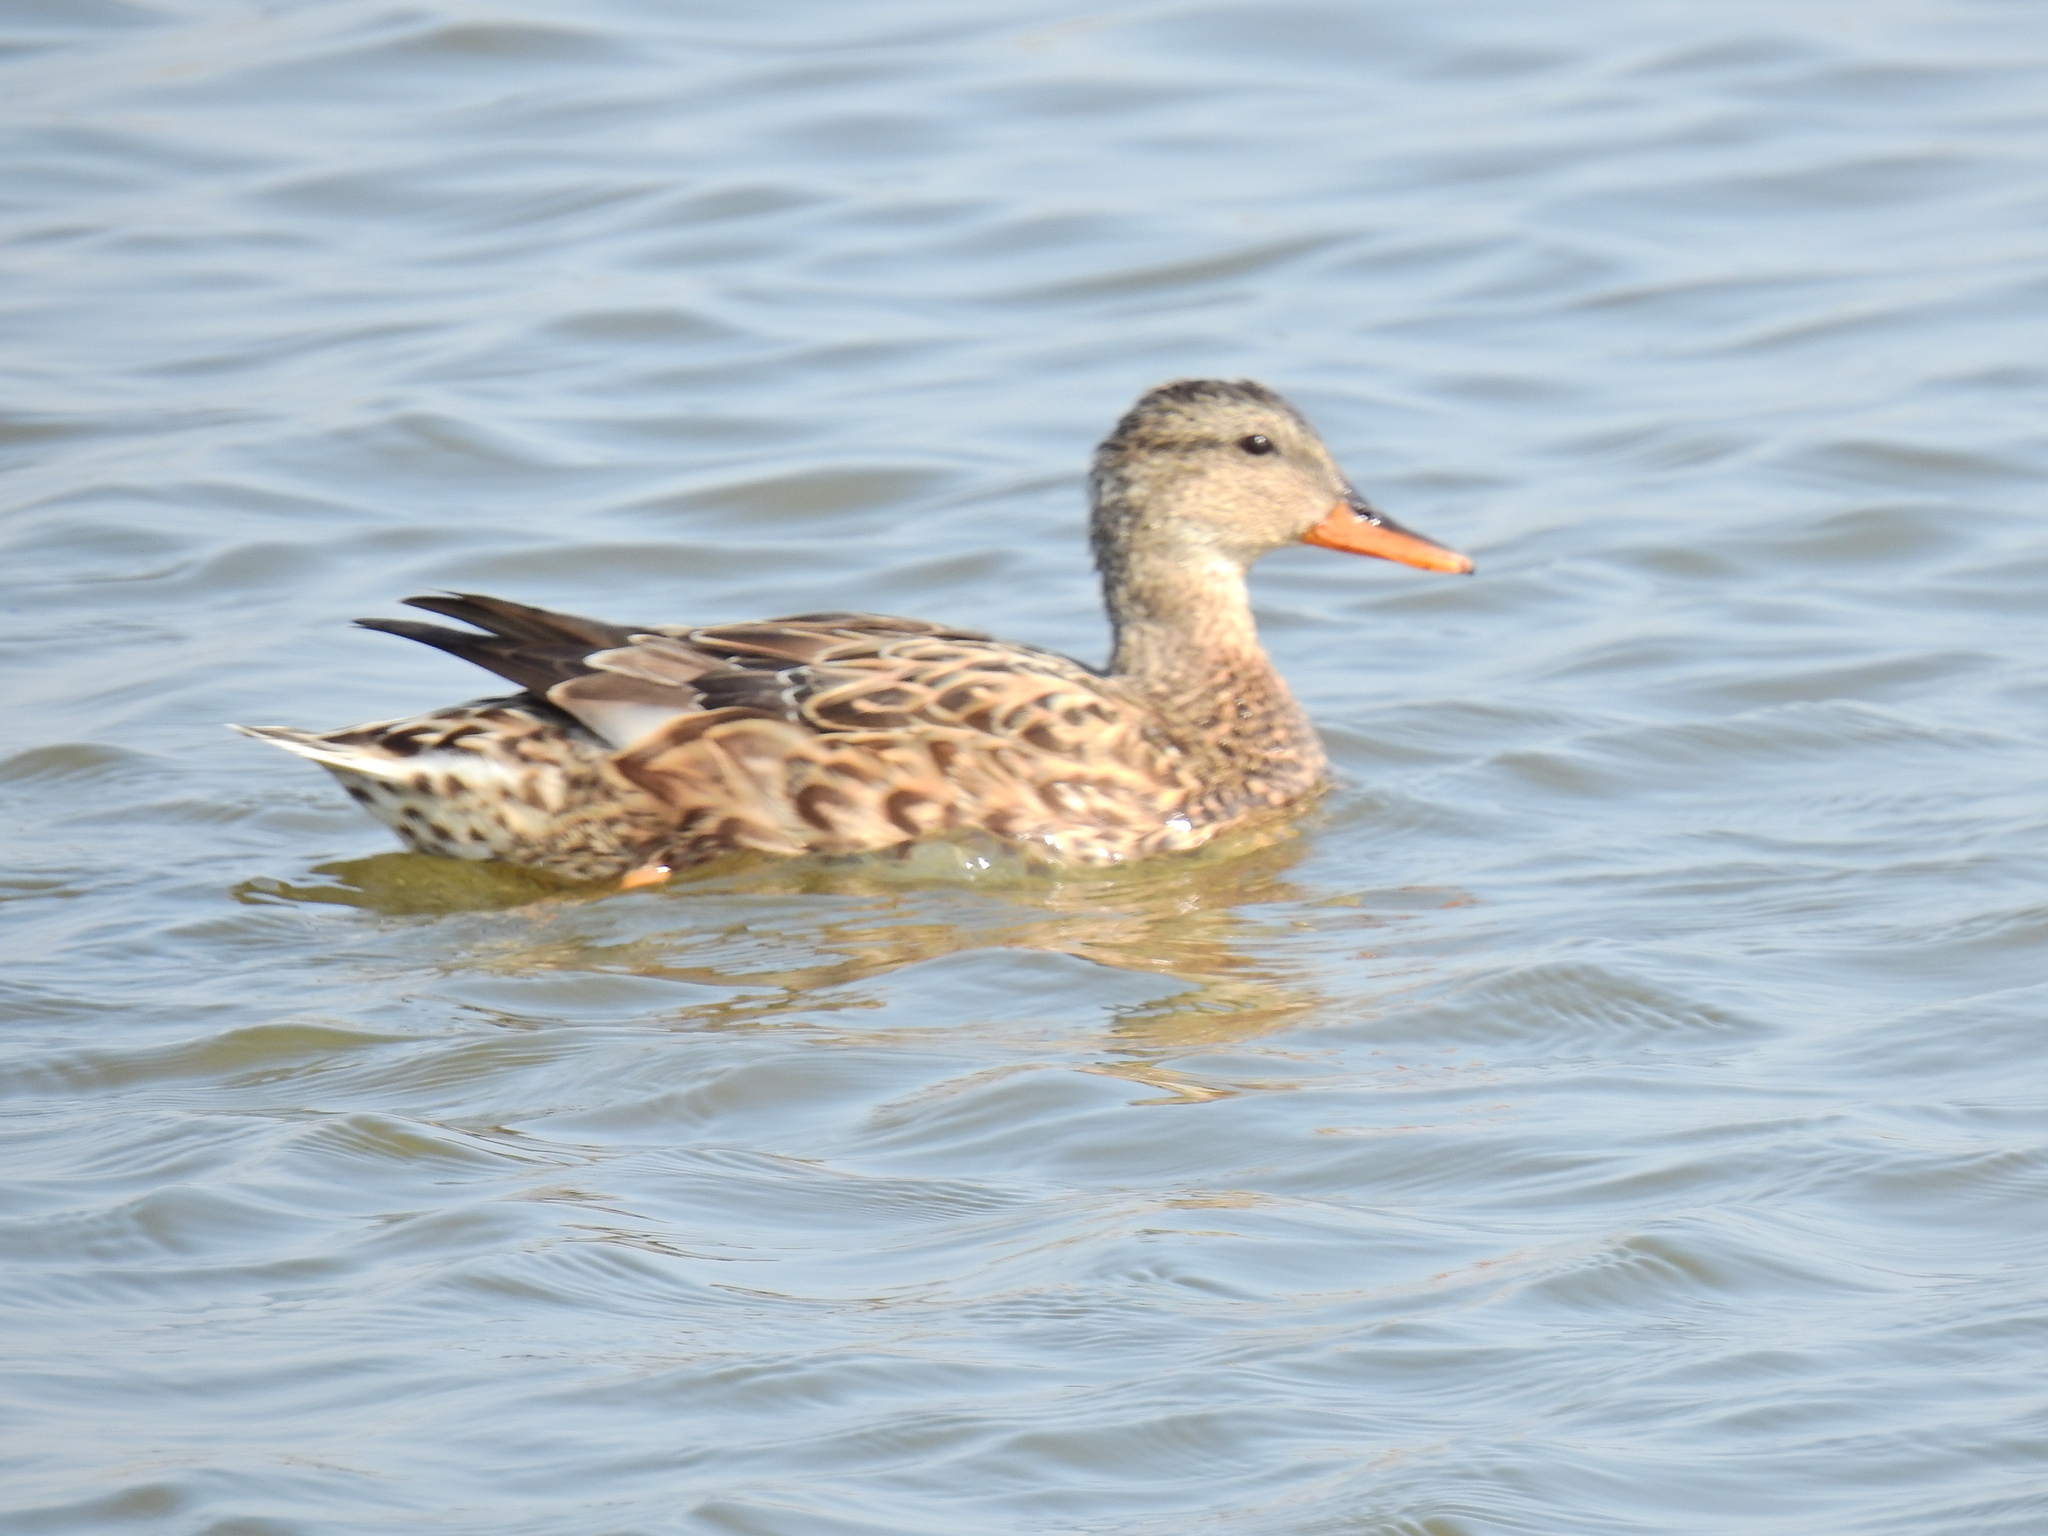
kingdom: Animalia
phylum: Chordata
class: Aves
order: Anseriformes
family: Anatidae
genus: Mareca
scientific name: Mareca strepera
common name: Gadwall
